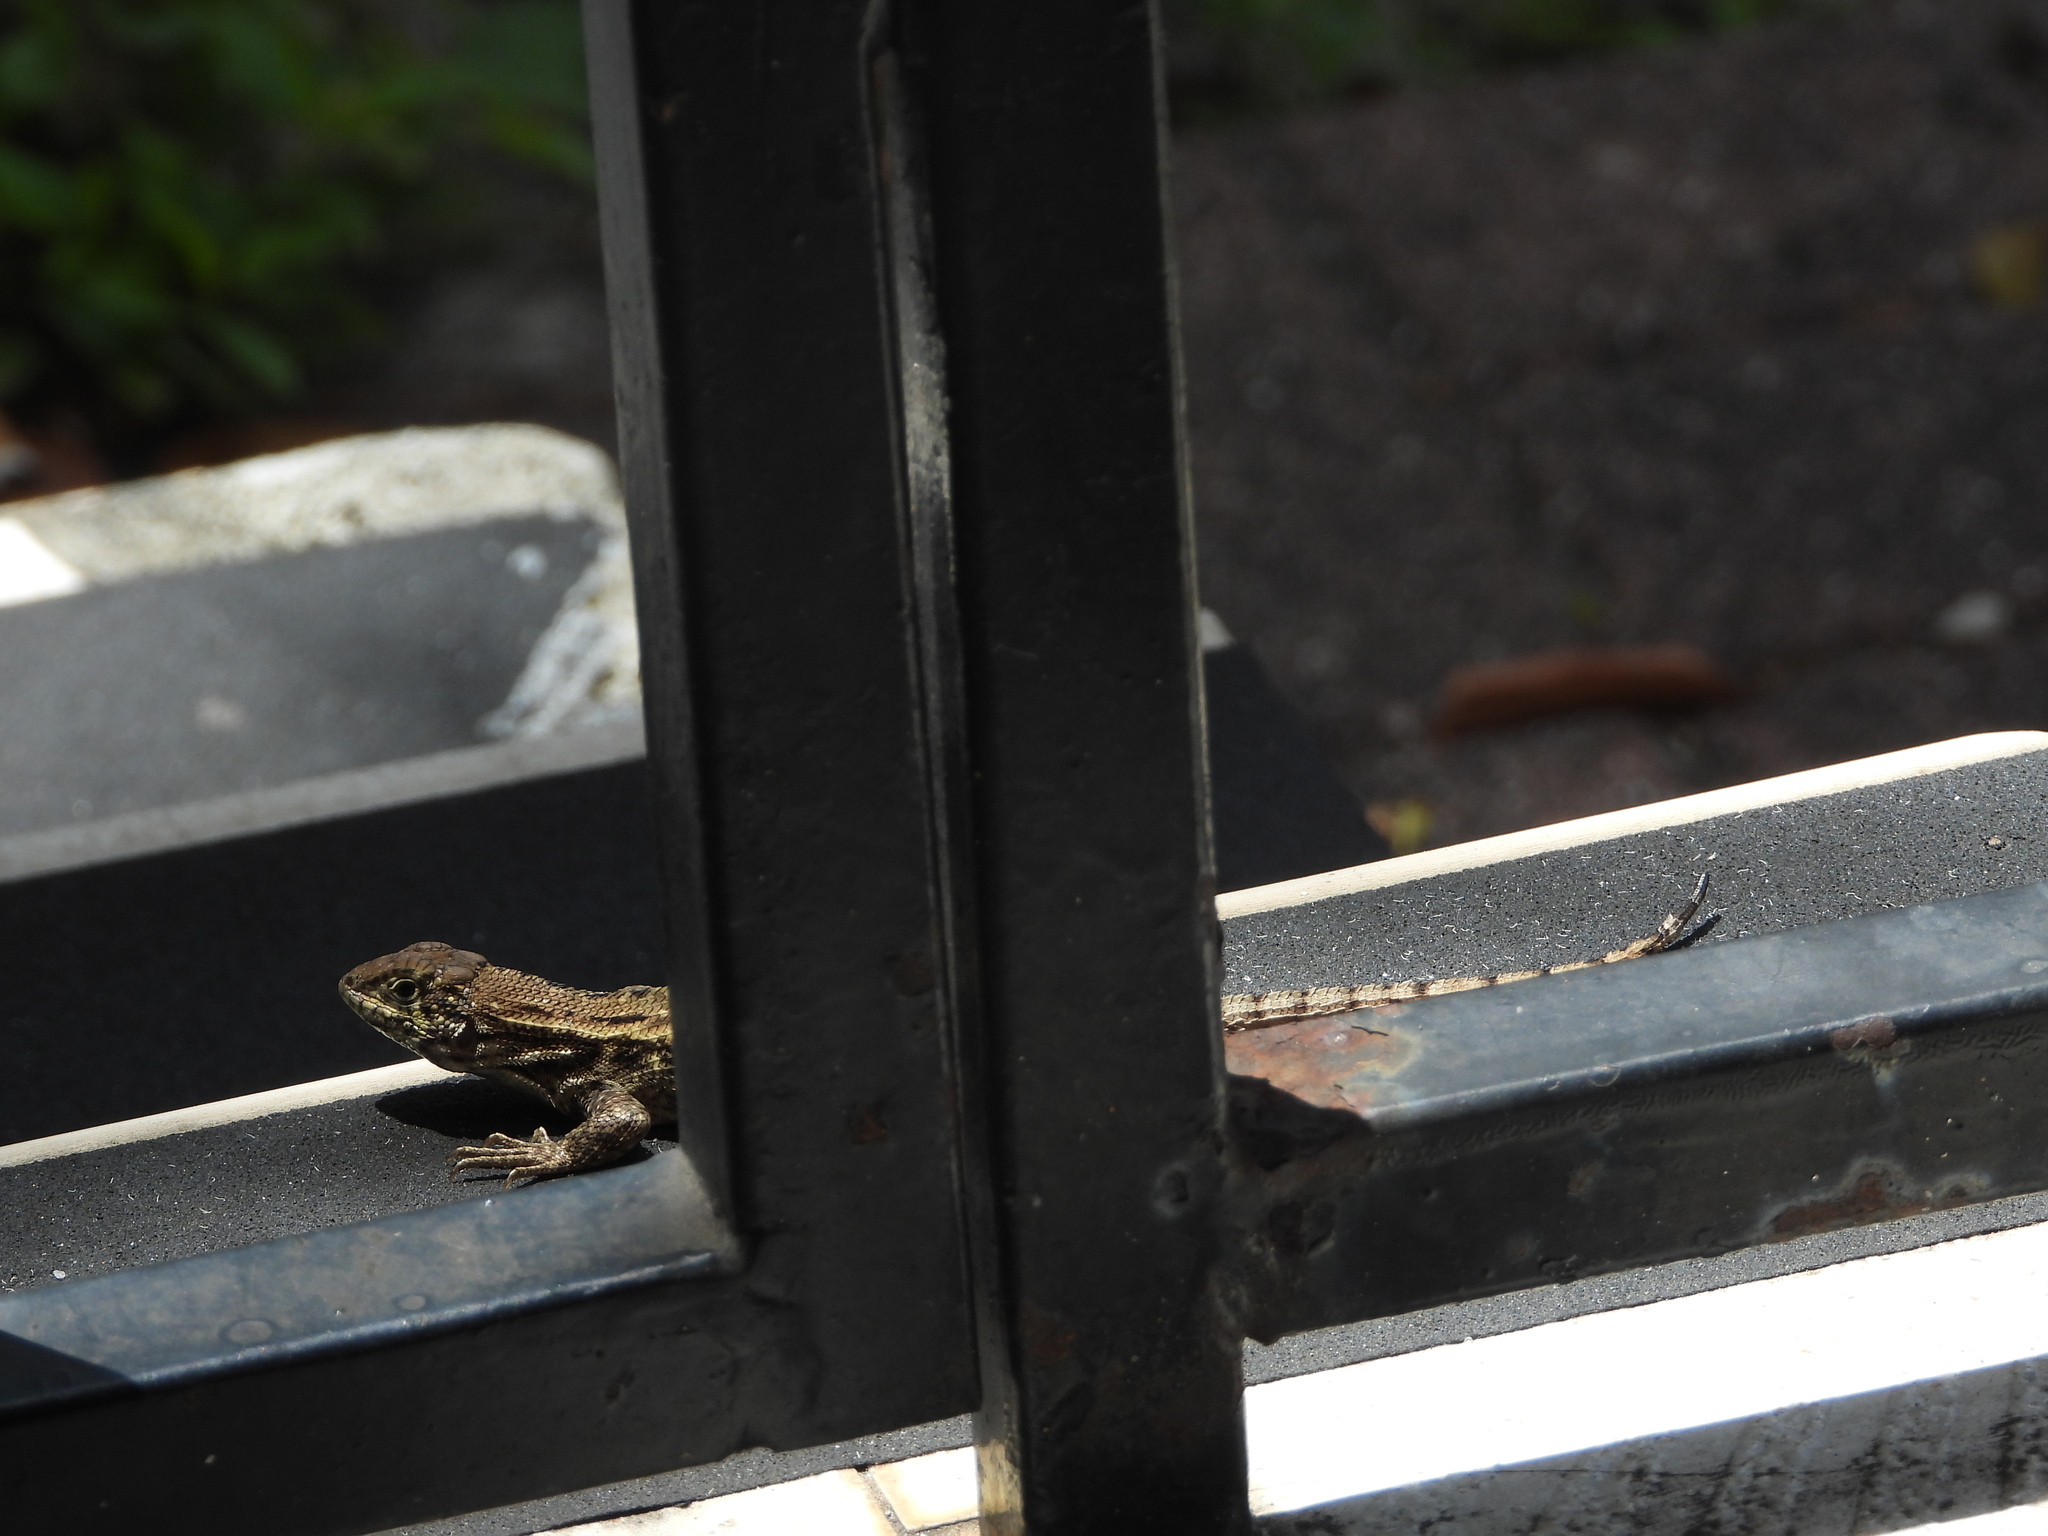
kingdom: Animalia
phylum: Chordata
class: Squamata
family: Leiocephalidae
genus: Leiocephalus
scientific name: Leiocephalus carinatus
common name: Northern curly-tailed lizard
